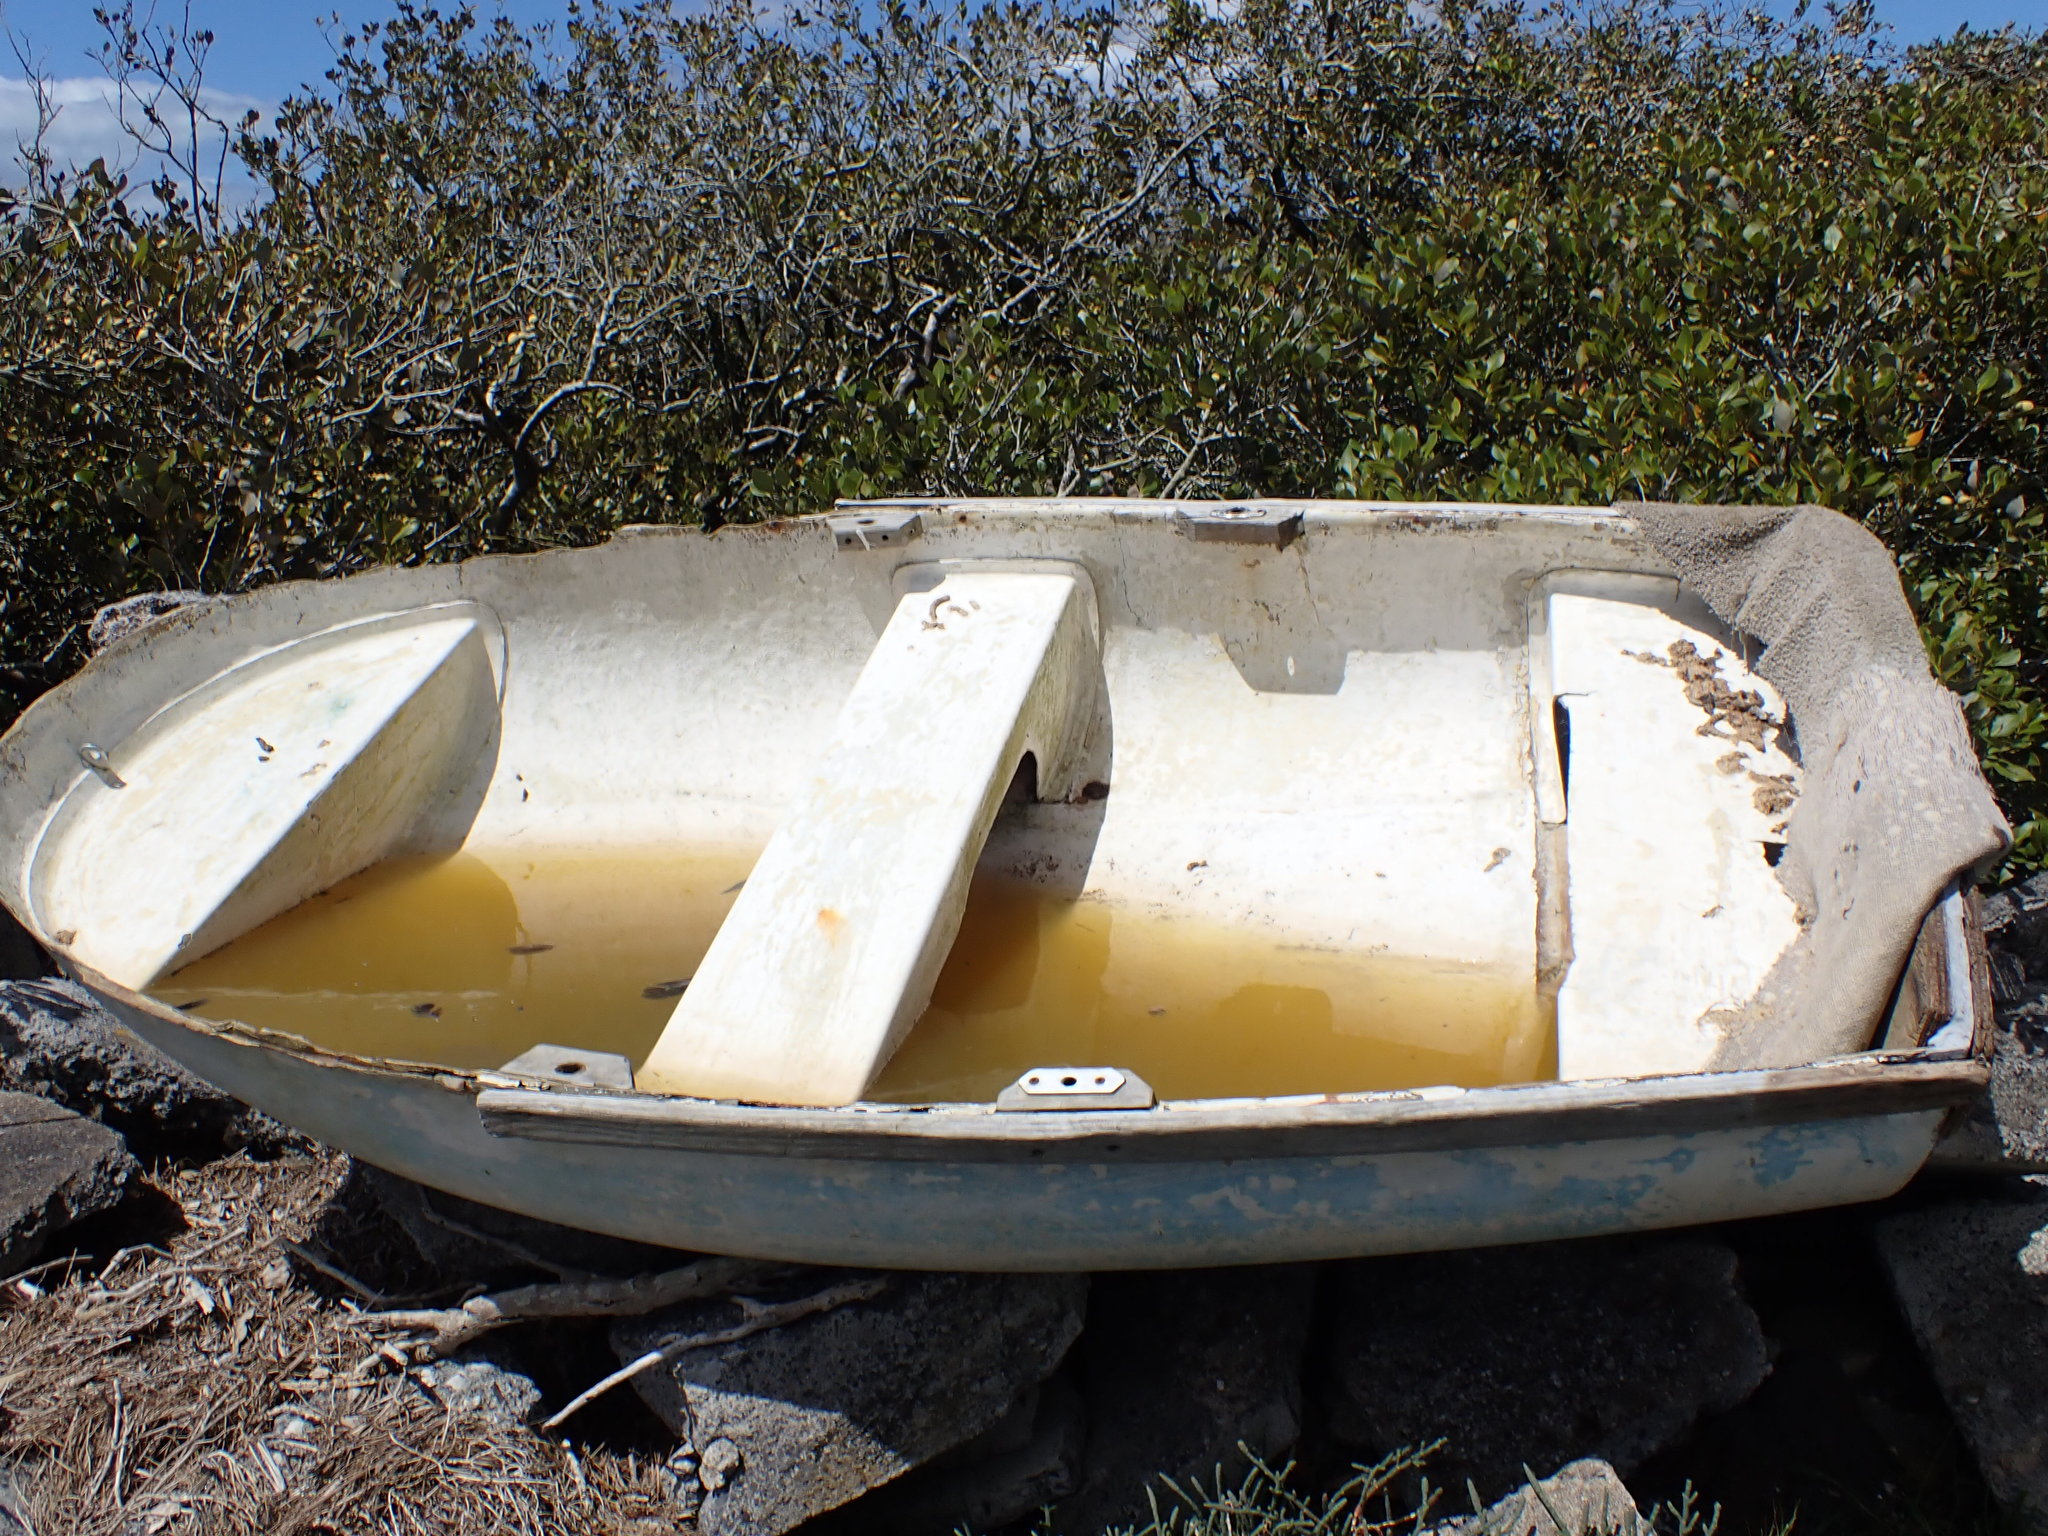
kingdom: Plantae
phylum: Tracheophyta
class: Magnoliopsida
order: Lamiales
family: Acanthaceae
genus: Avicennia
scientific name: Avicennia marina
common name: Gray mangrove
